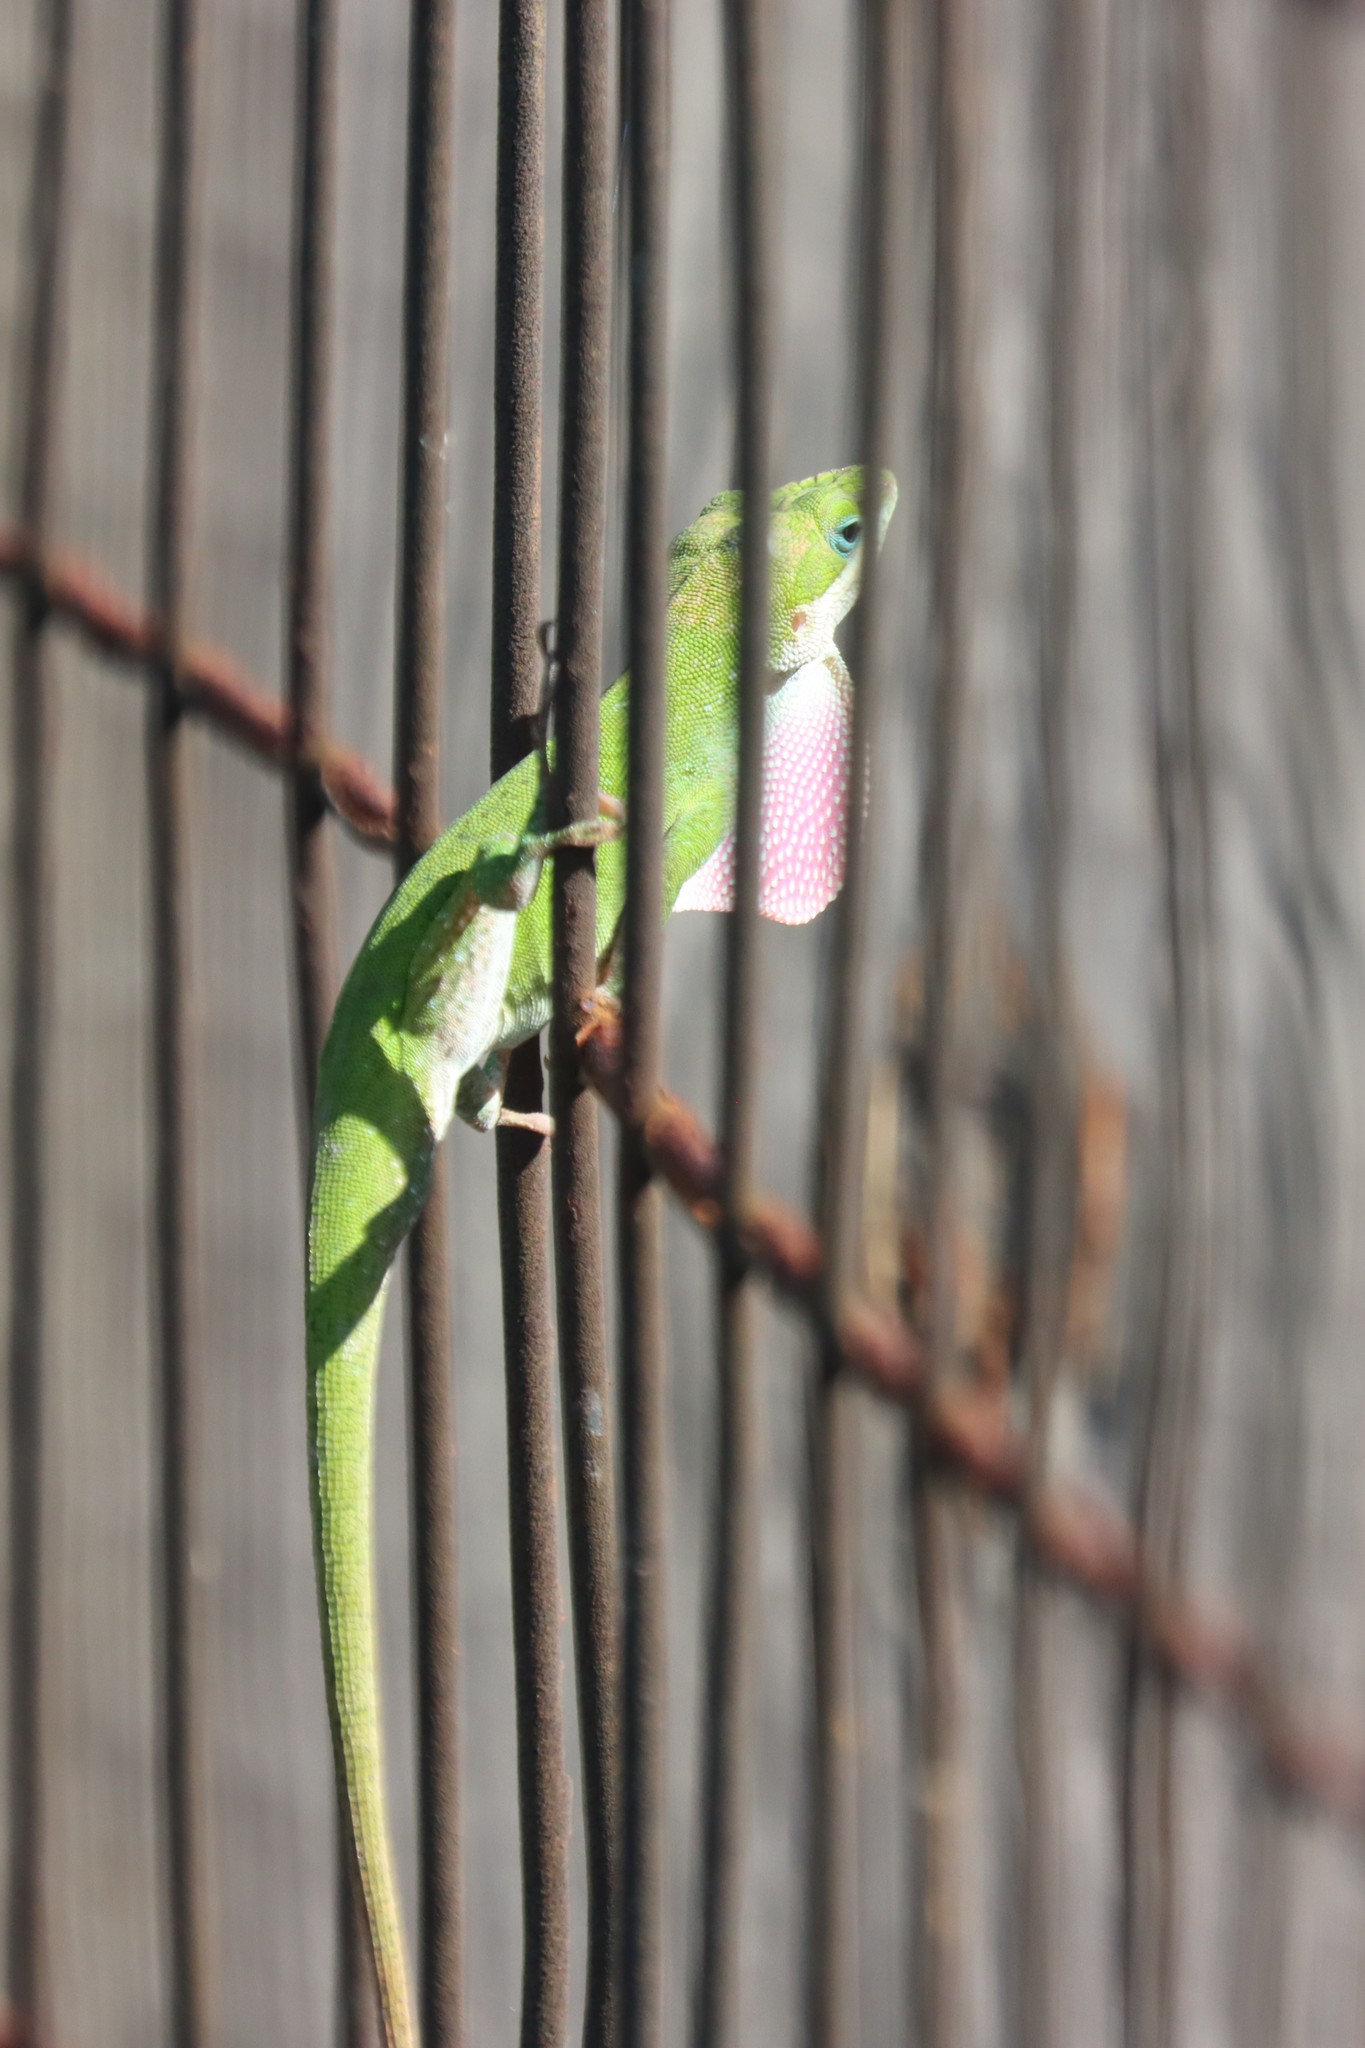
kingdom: Animalia
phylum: Chordata
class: Squamata
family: Dactyloidae
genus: Anolis
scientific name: Anolis carolinensis
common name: Green anole
